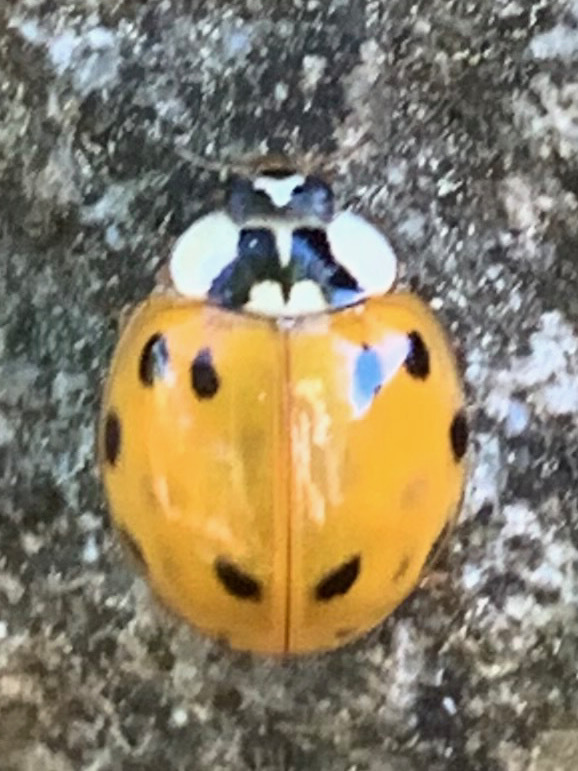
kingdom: Animalia
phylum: Arthropoda
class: Insecta
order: Coleoptera
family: Coccinellidae
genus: Harmonia
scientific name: Harmonia axyridis
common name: Harlequin ladybird
